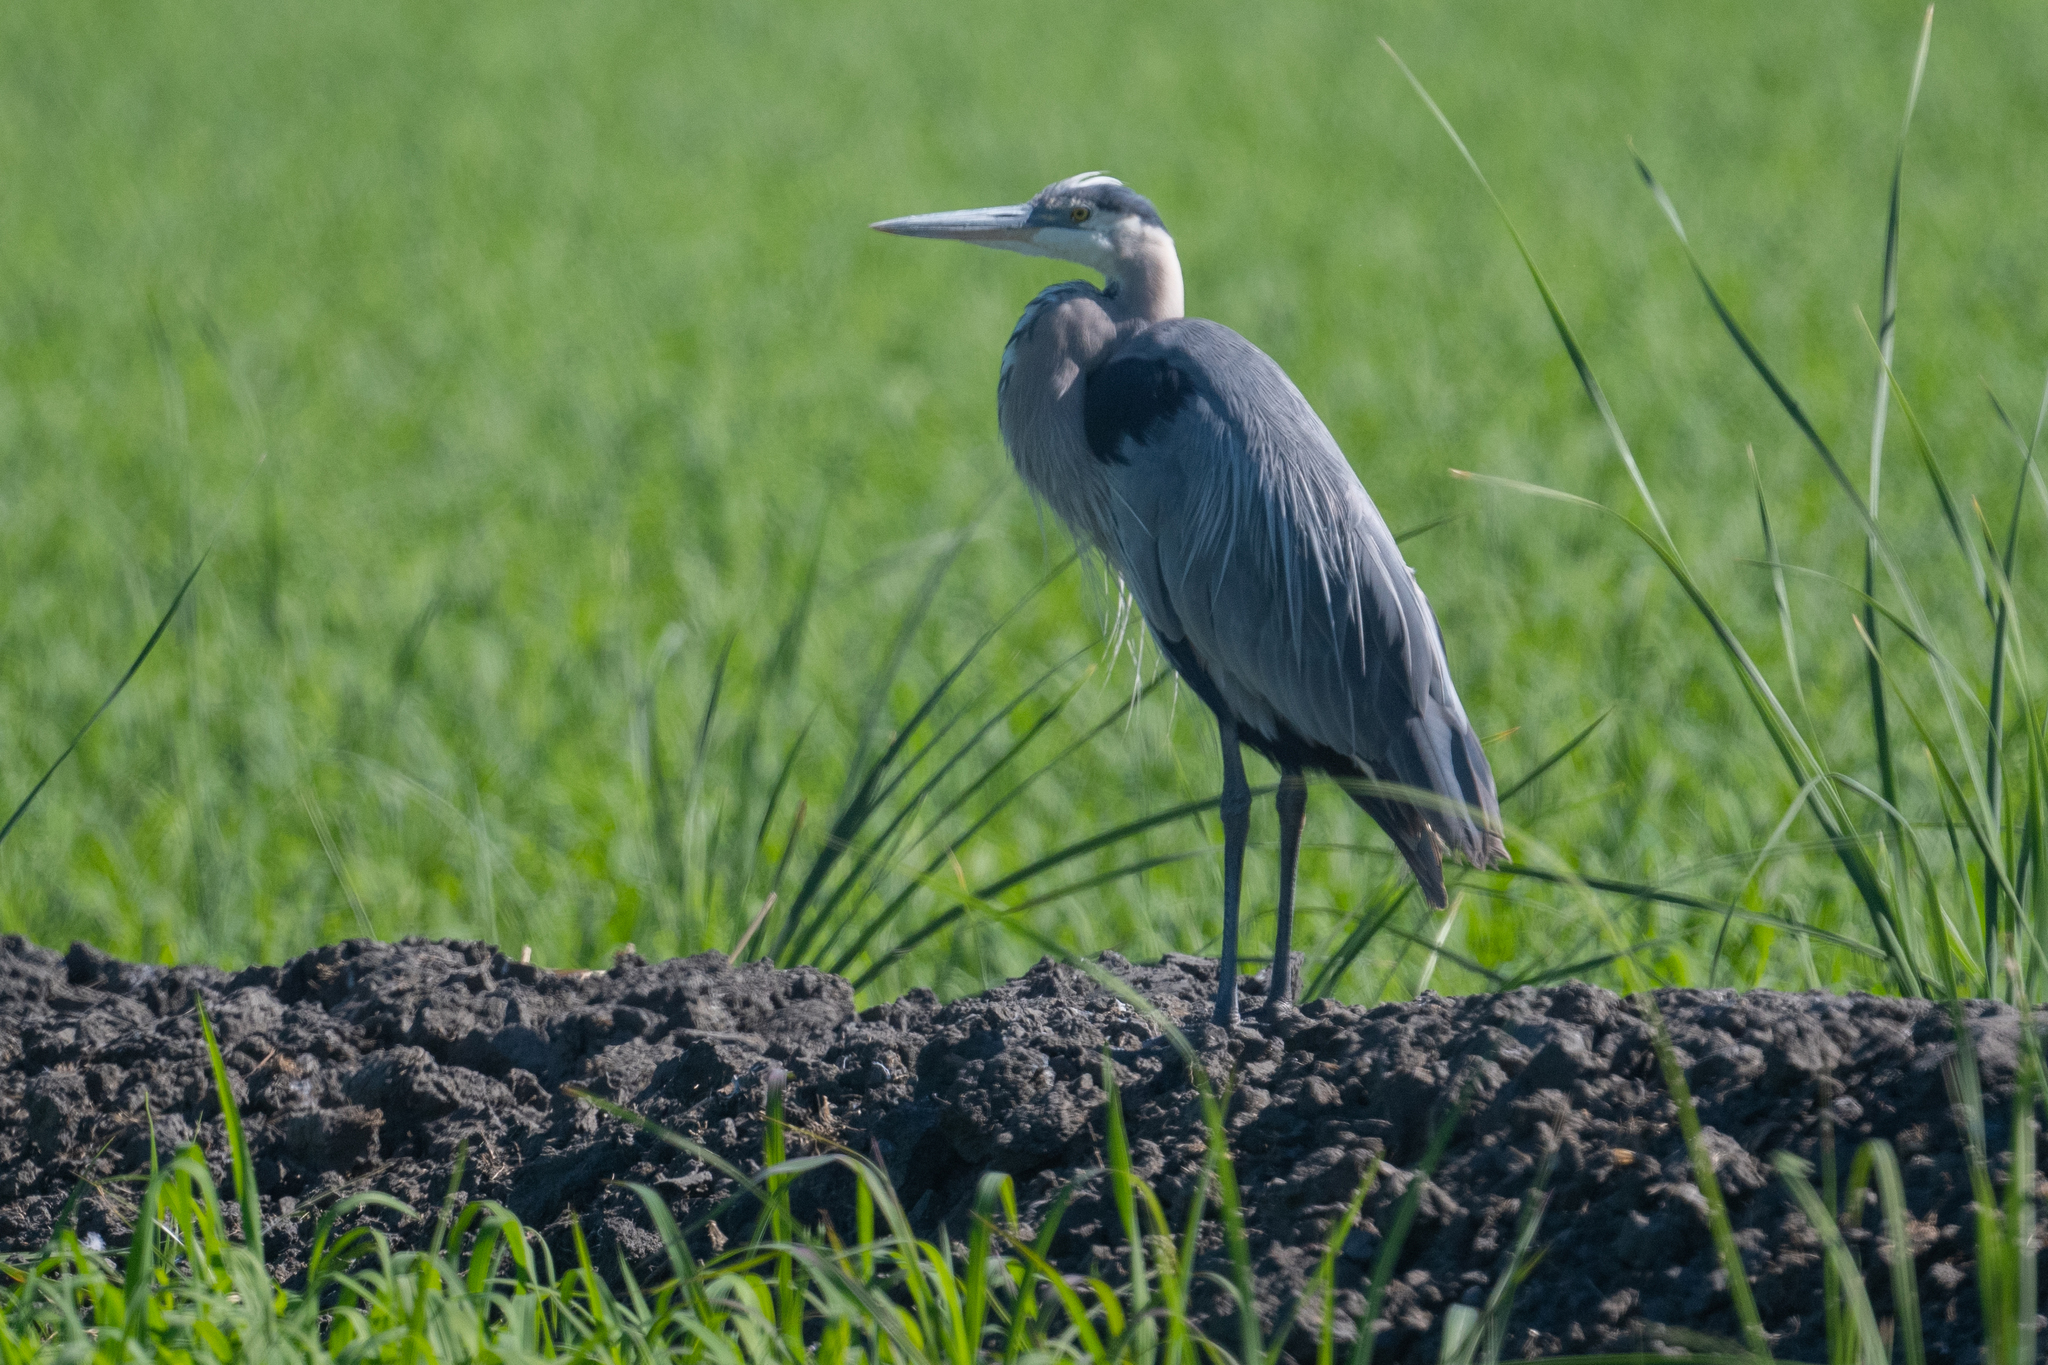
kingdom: Animalia
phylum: Chordata
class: Aves
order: Pelecaniformes
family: Ardeidae
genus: Ardea
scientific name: Ardea herodias
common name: Great blue heron
